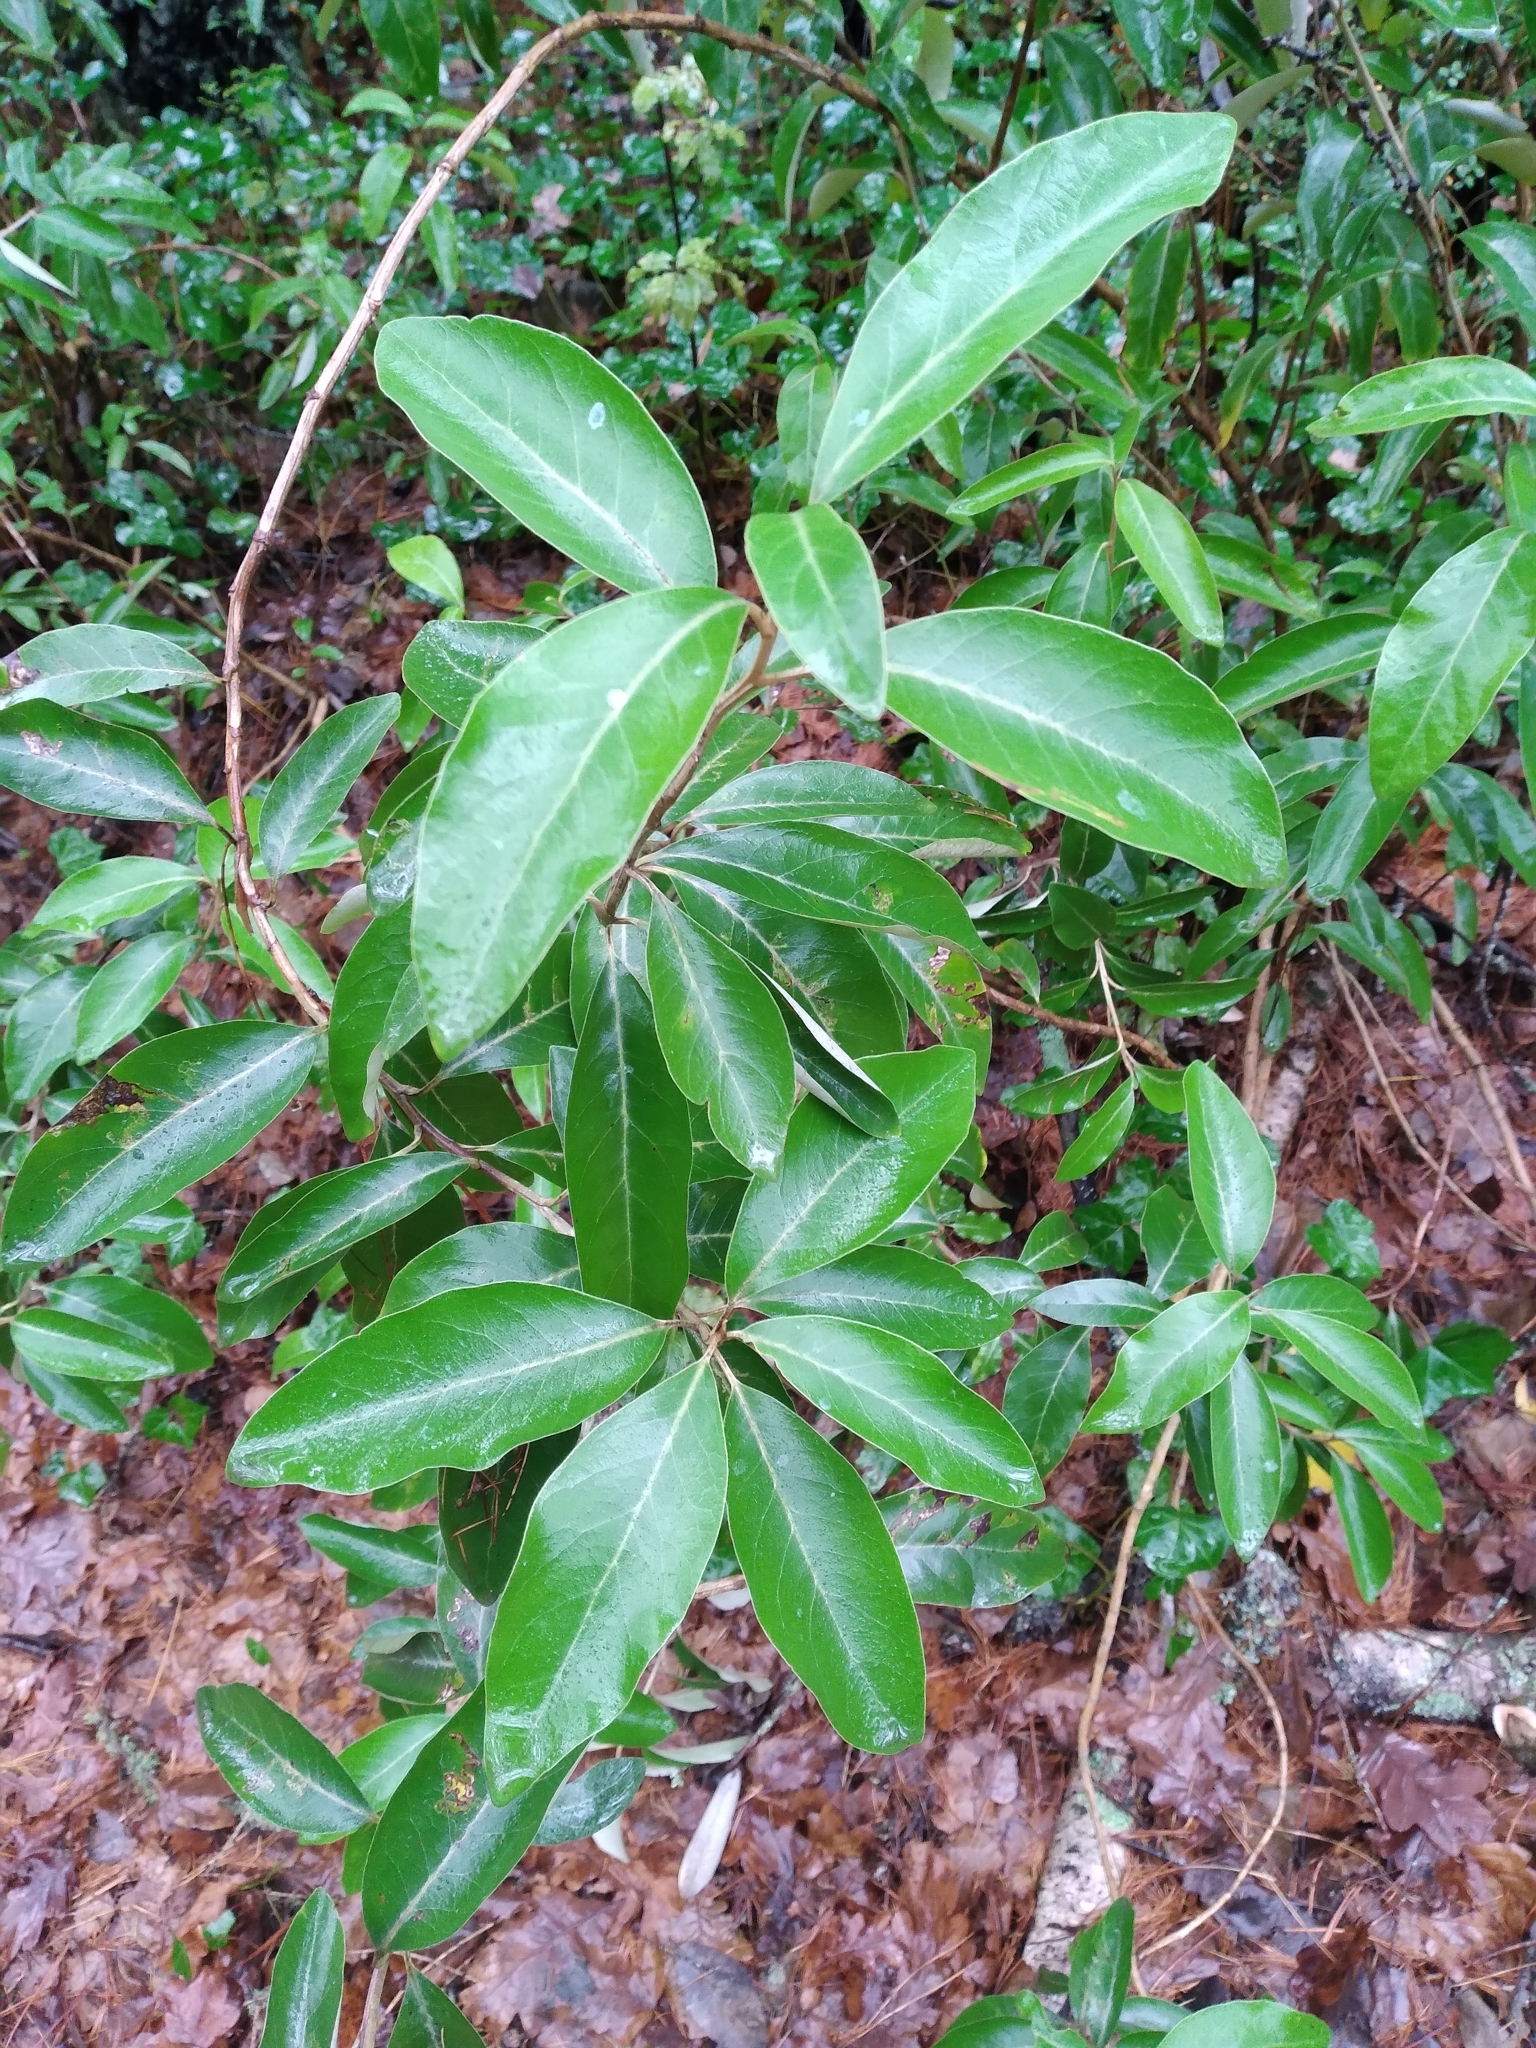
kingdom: Plantae
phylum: Tracheophyta
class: Magnoliopsida
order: Asterales
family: Asteraceae
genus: Olearia
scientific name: Olearia avicenniifolia
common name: Mangrove-leaf daisybush
